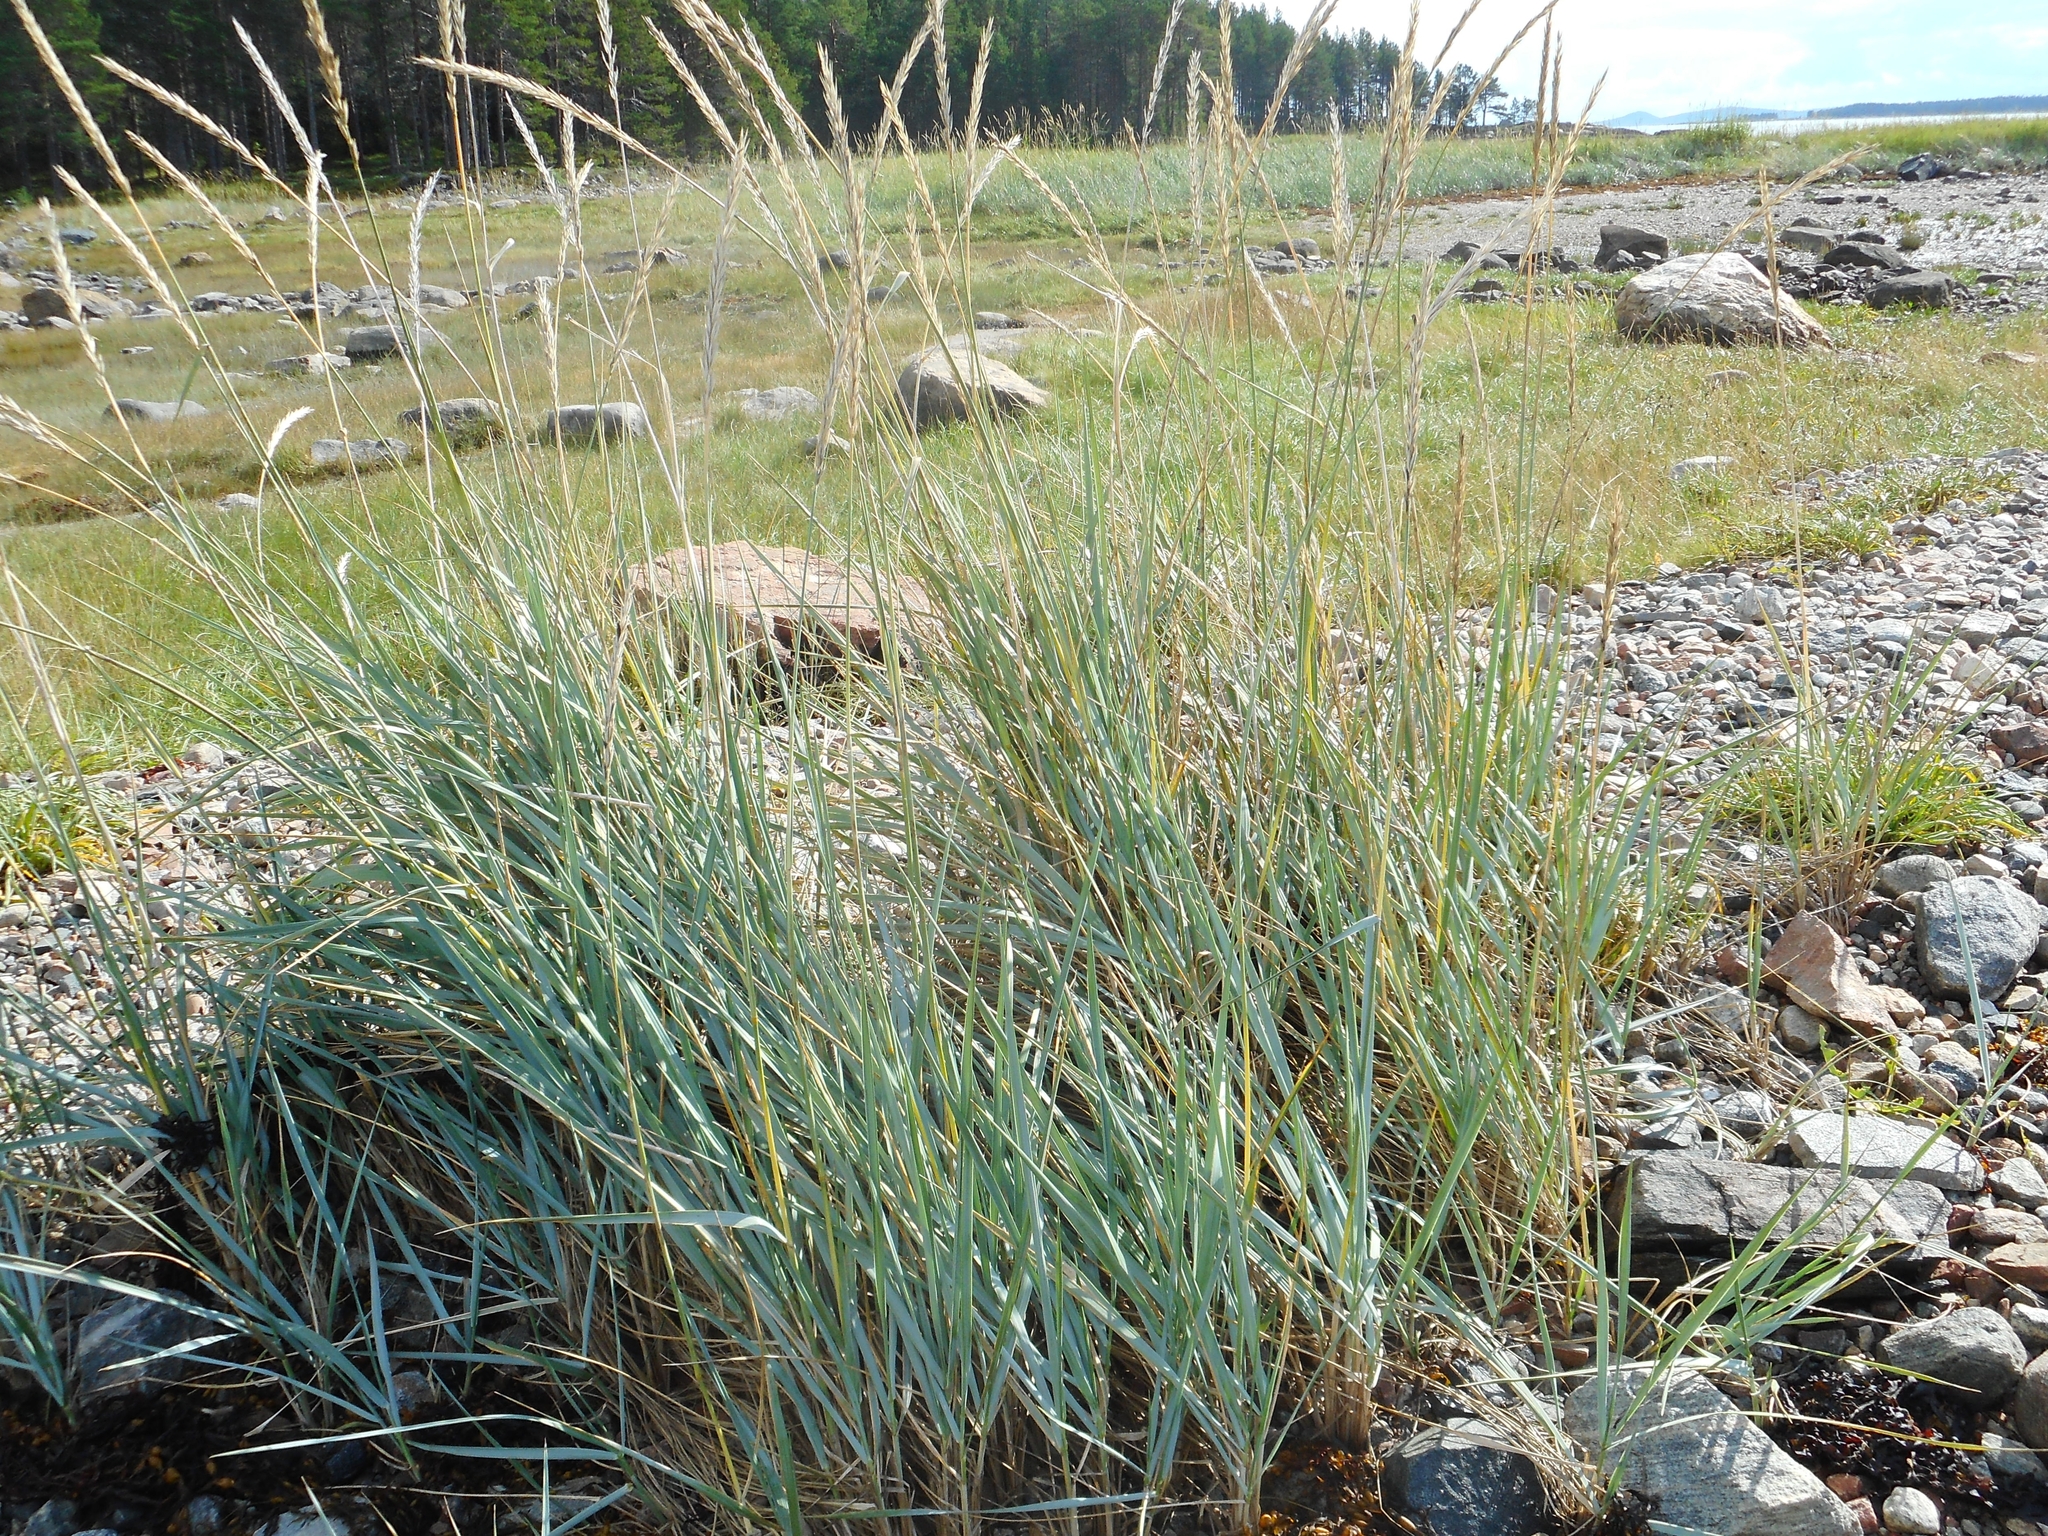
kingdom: Plantae
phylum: Tracheophyta
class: Liliopsida
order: Poales
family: Poaceae
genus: Leymus
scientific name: Leymus arenarius
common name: Lyme-grass
